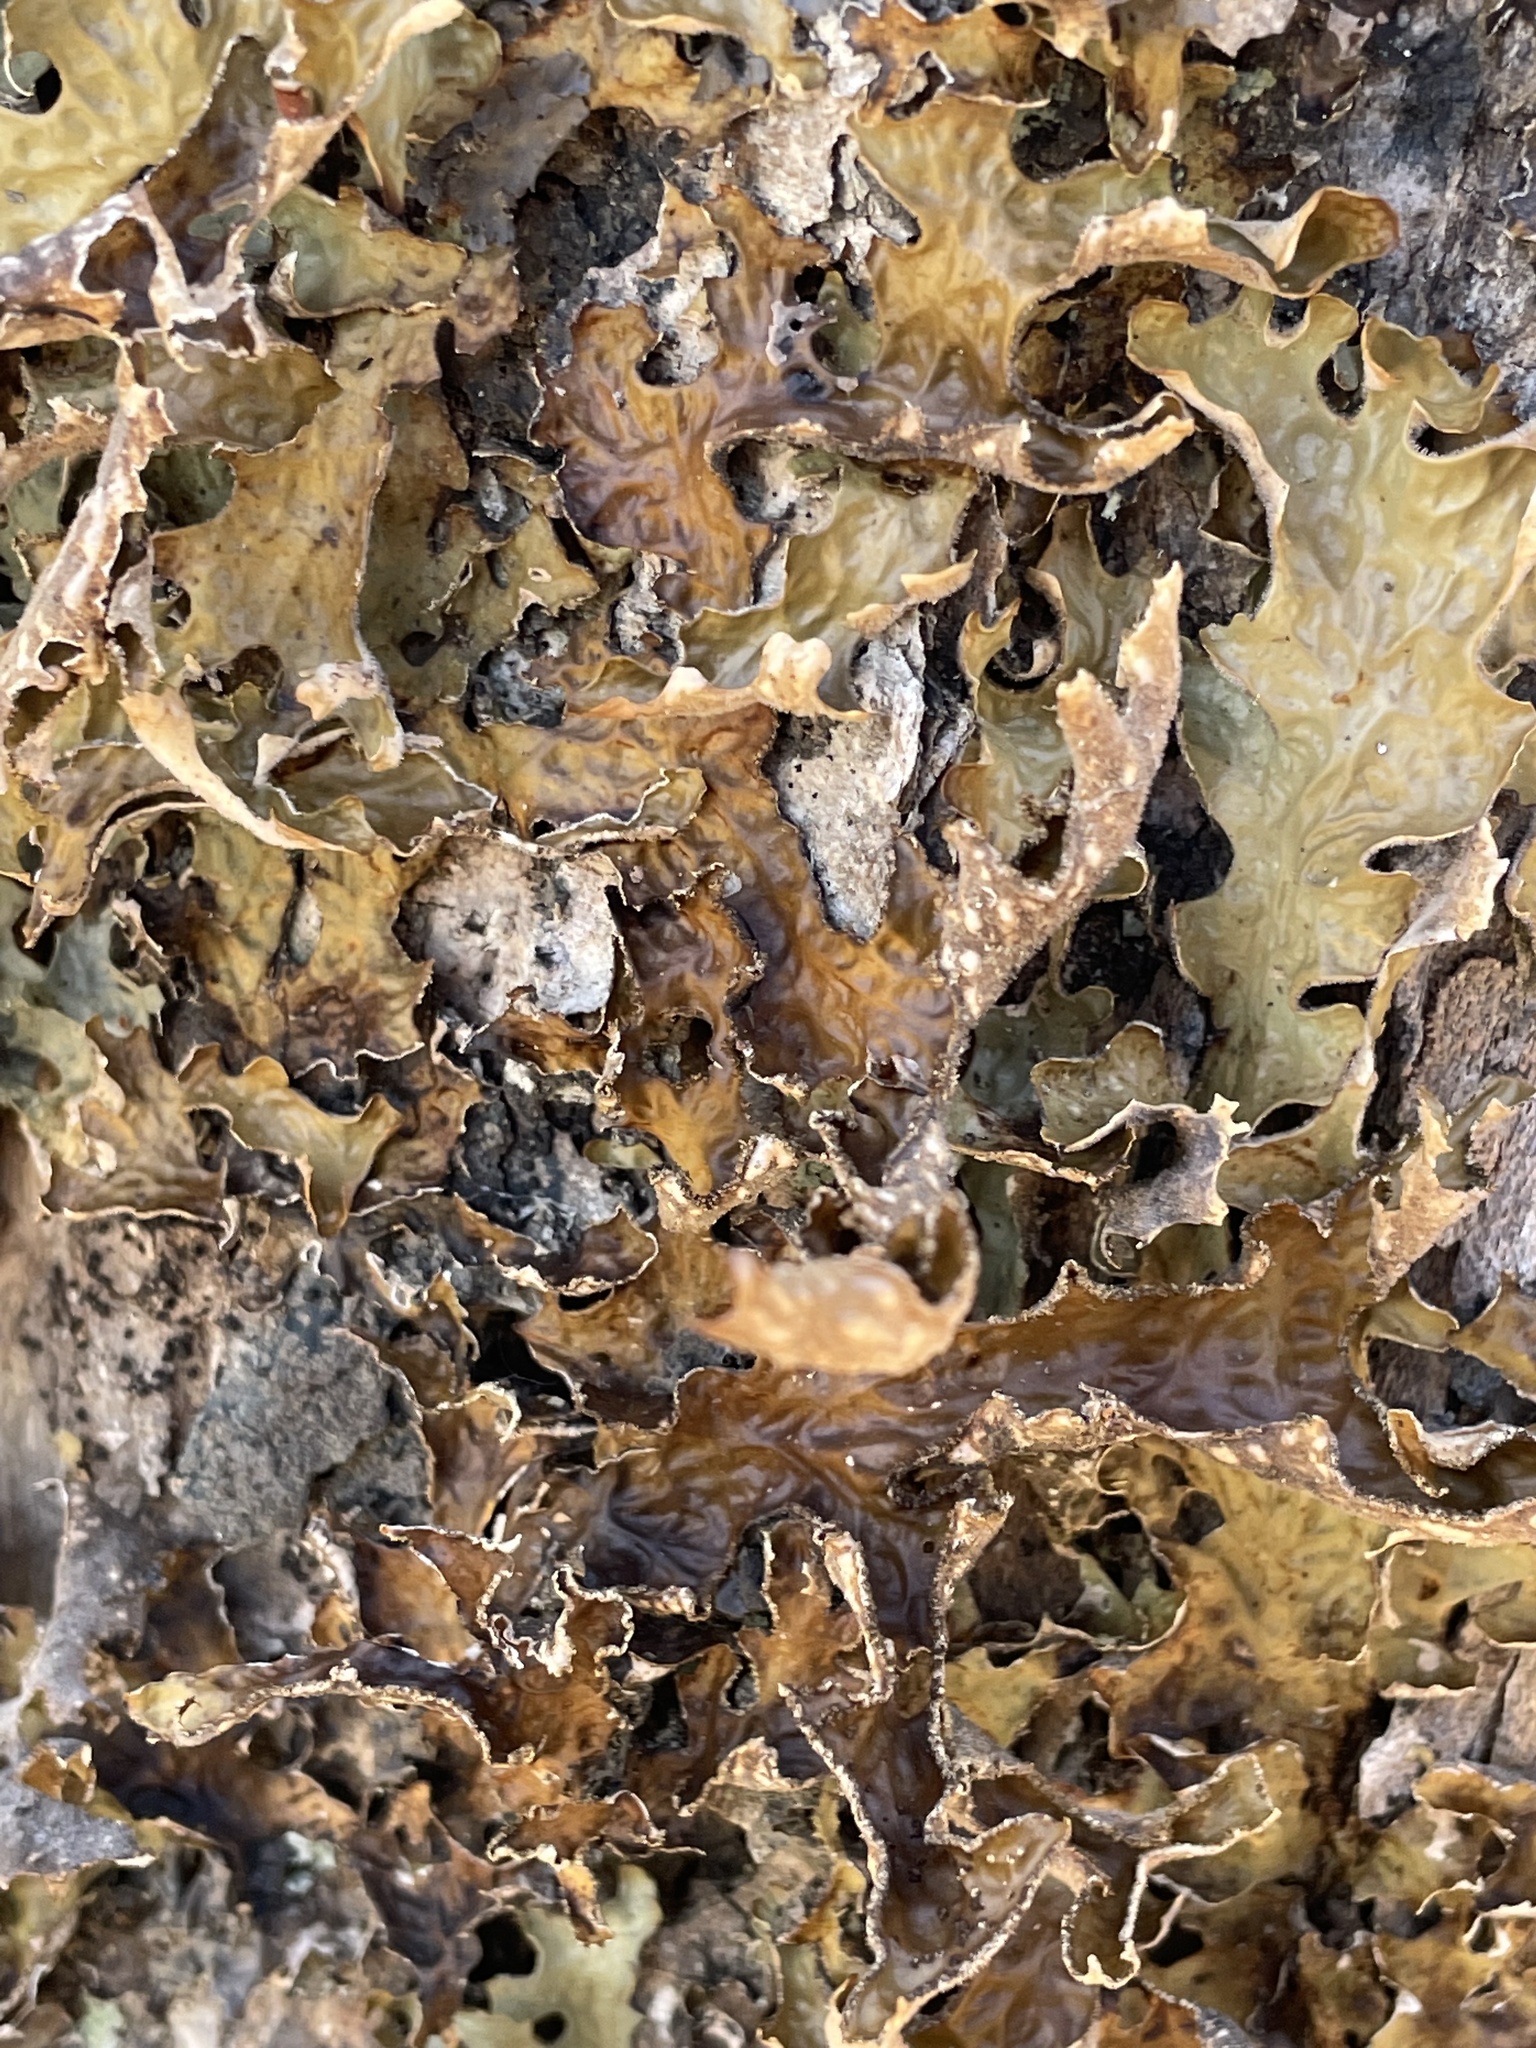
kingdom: Fungi
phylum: Ascomycota
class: Lecanoromycetes
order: Peltigerales
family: Lobariaceae
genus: Lobaria
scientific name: Lobaria pulmonaria
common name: Lungwort
